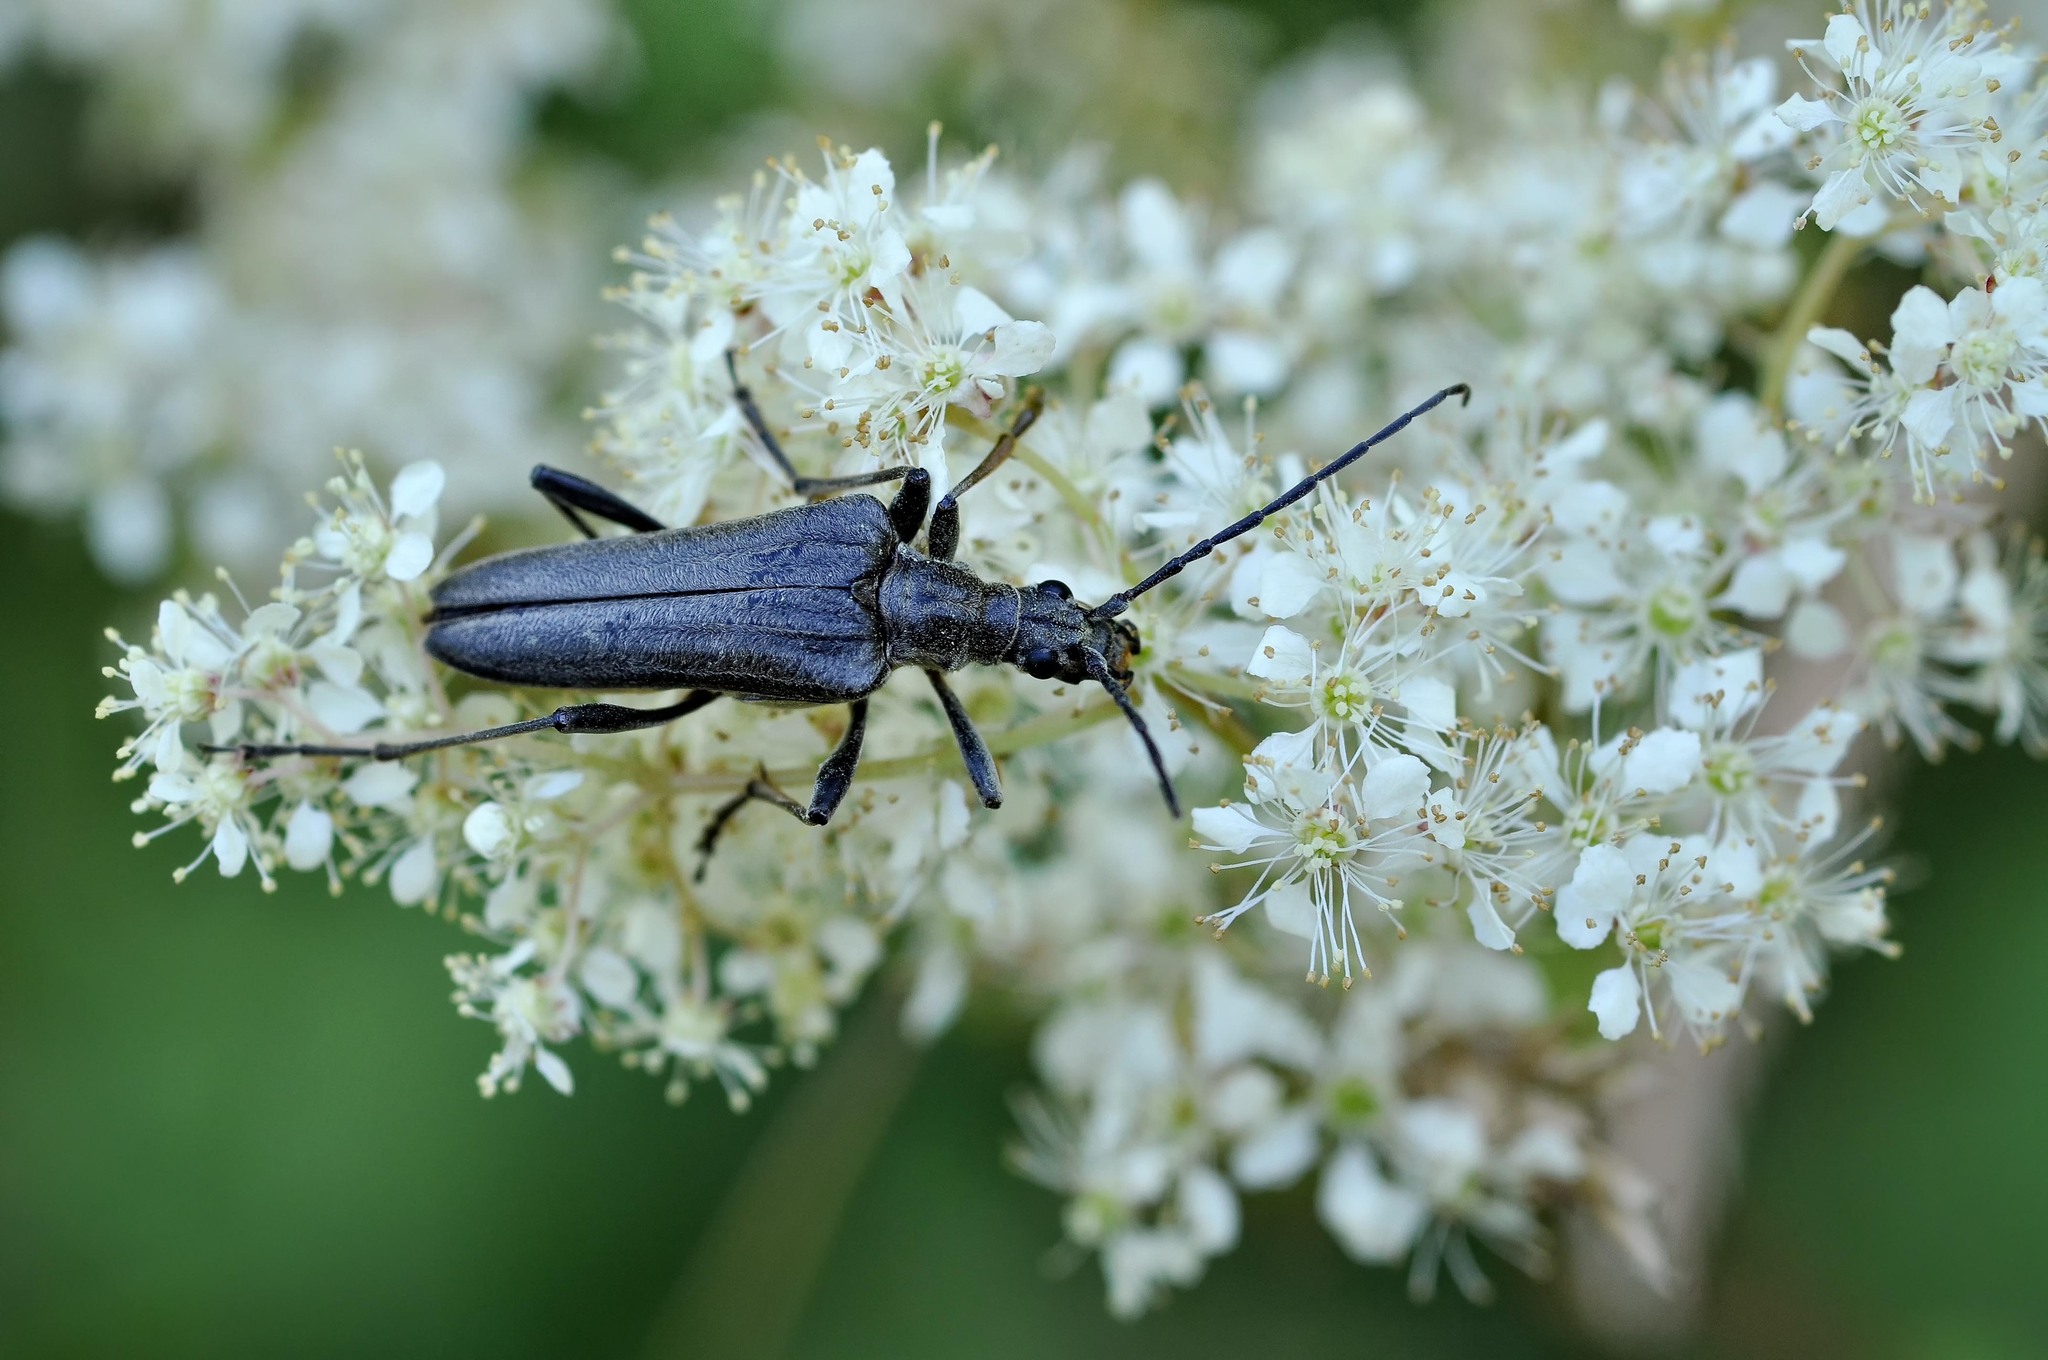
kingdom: Animalia
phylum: Arthropoda
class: Insecta
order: Coleoptera
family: Cerambycidae
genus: Stenocorus
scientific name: Stenocorus meridianus
